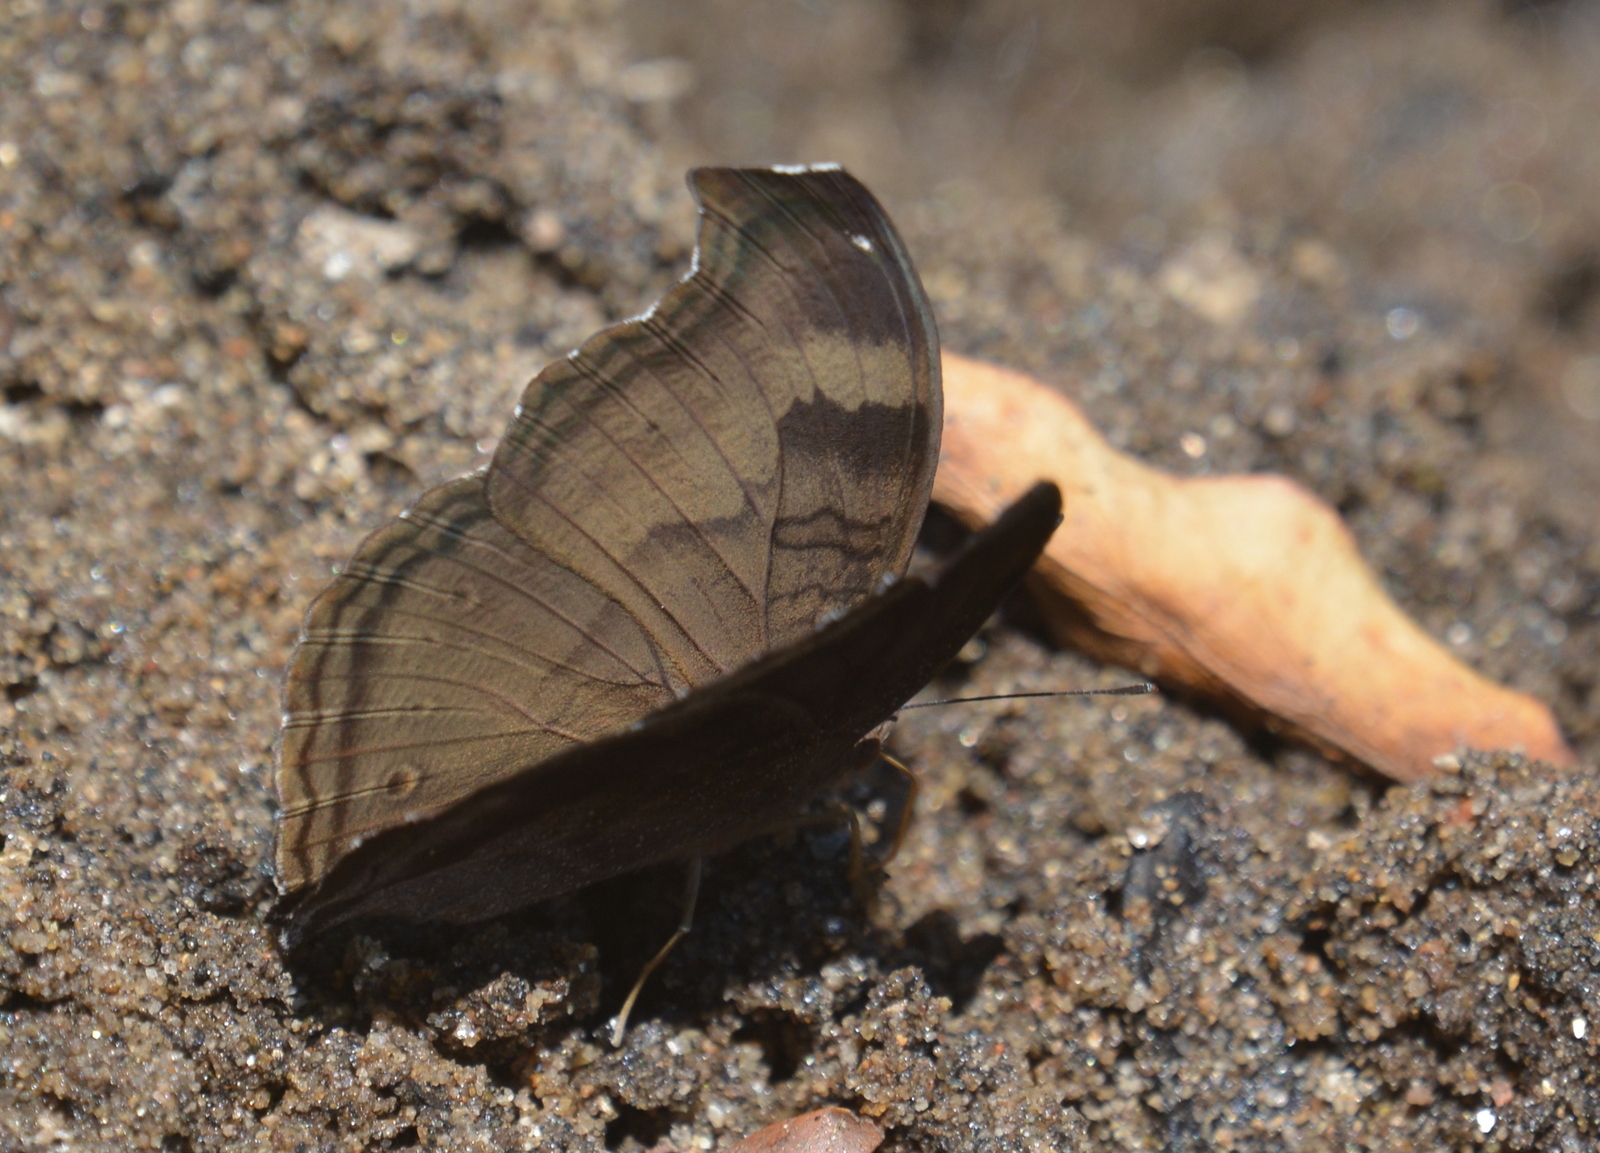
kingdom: Animalia
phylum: Arthropoda
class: Insecta
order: Lepidoptera
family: Nymphalidae
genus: Junonia
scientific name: Junonia iphita
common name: Chocolate pansy
